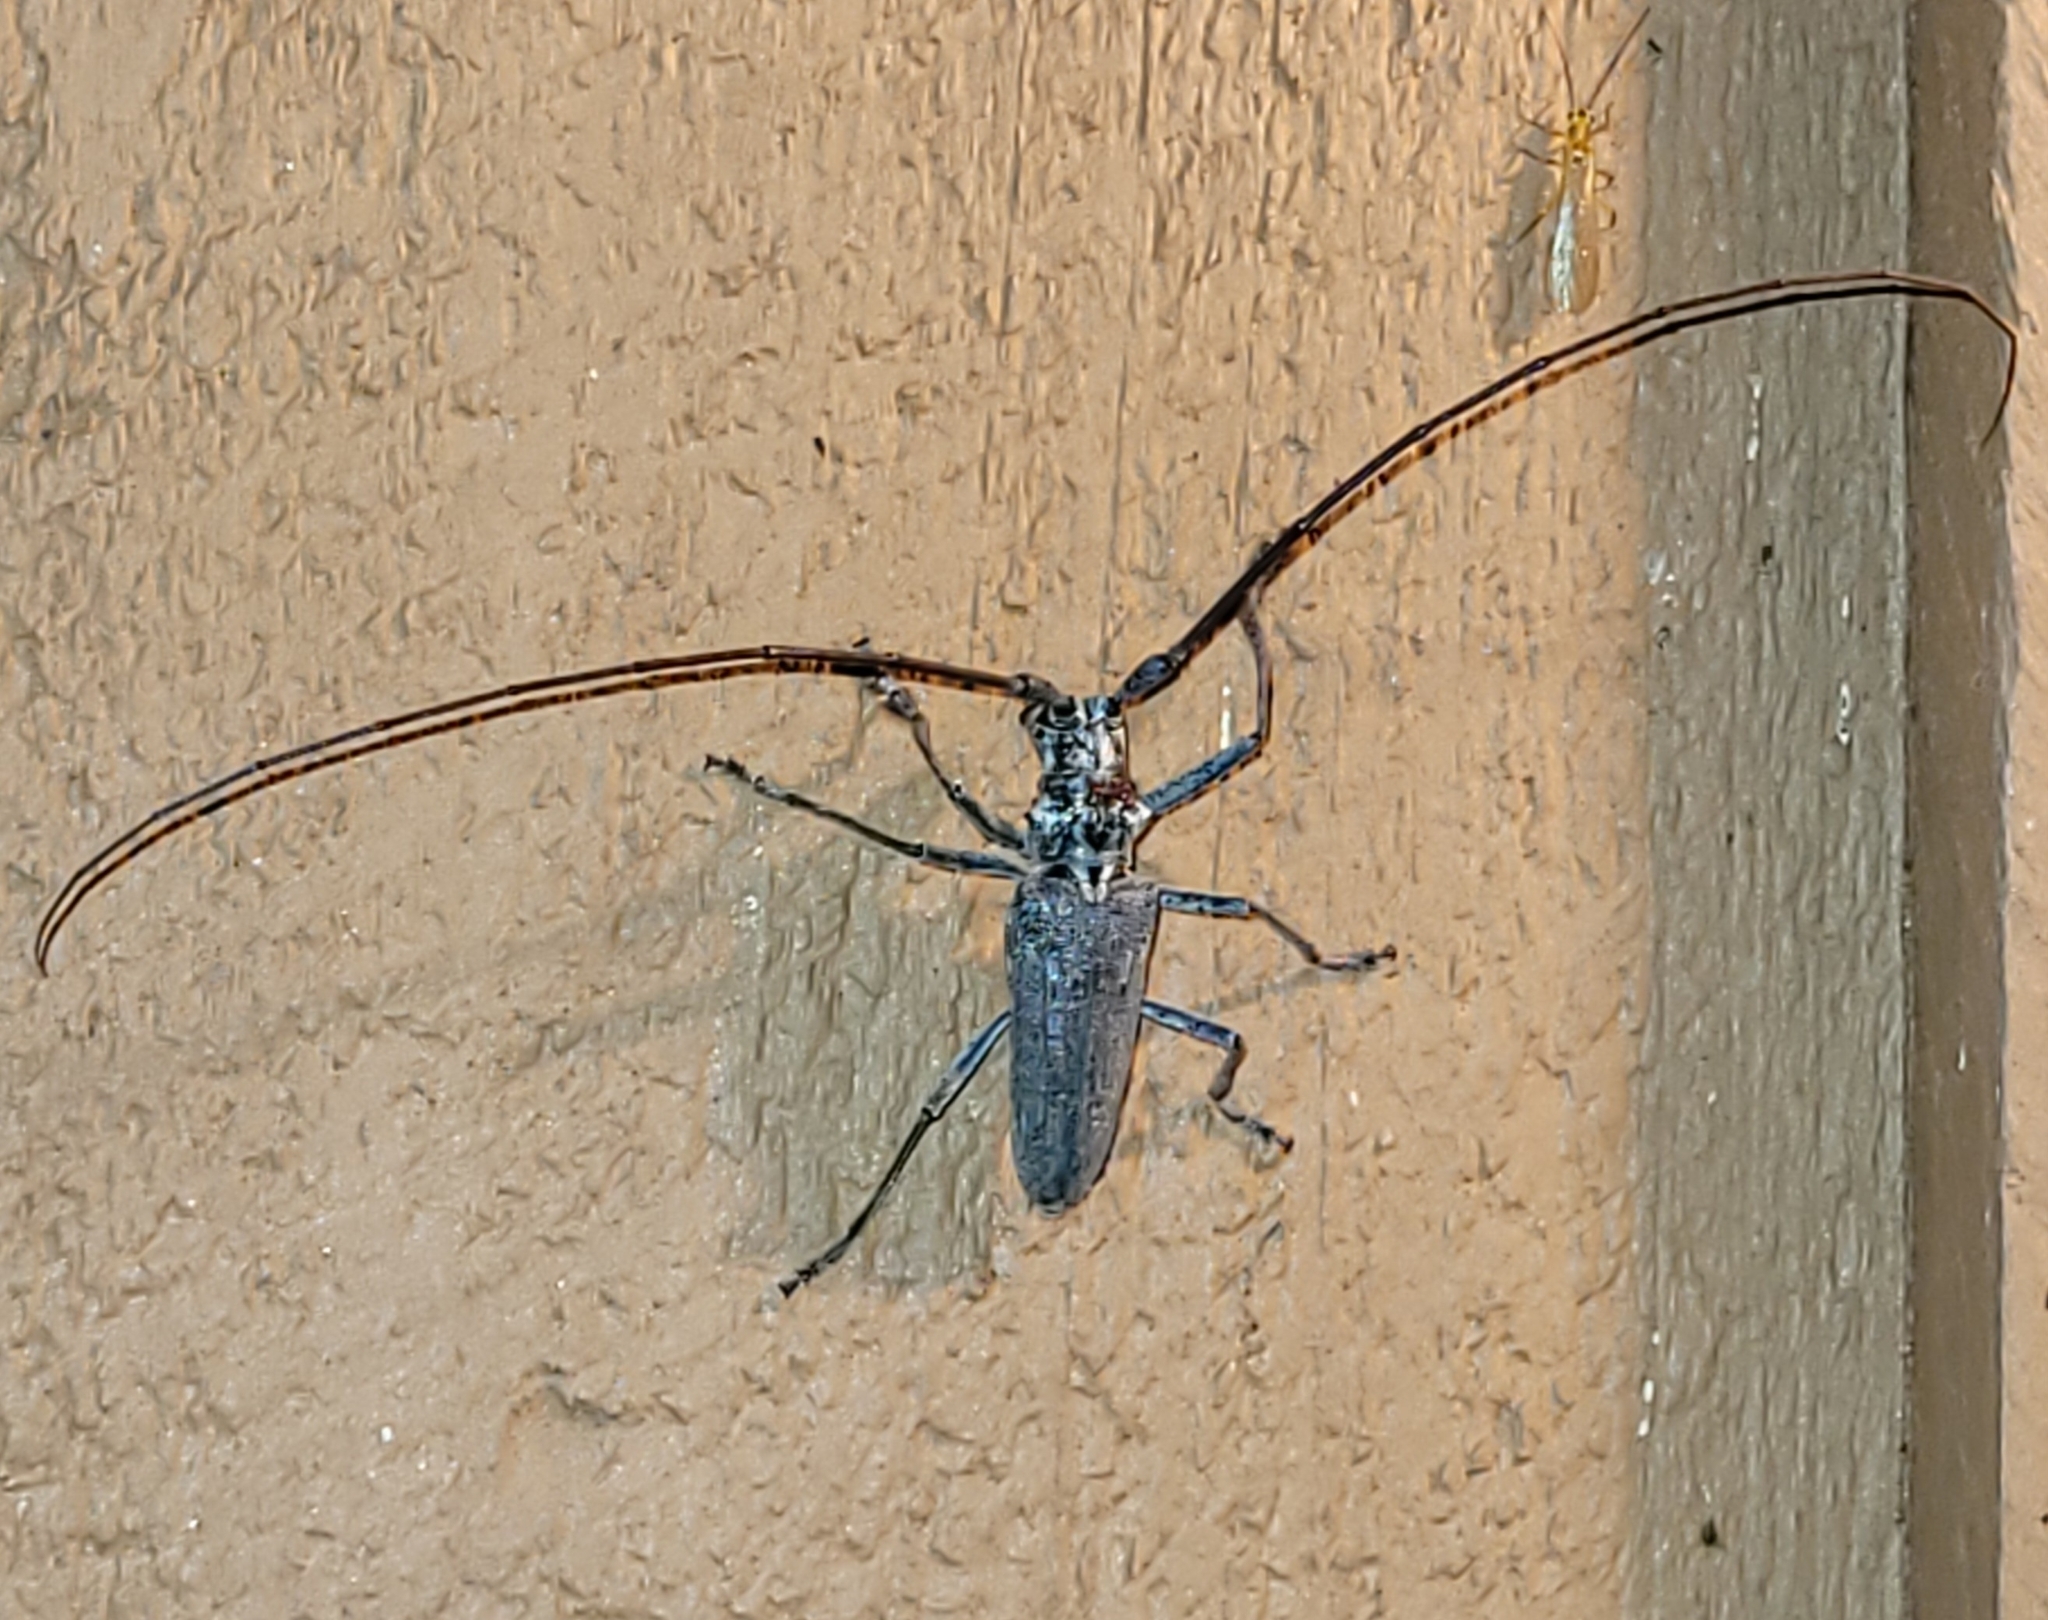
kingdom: Animalia
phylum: Arthropoda
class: Insecta
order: Coleoptera
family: Cerambycidae
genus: Monochamus
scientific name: Monochamus notatus
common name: Northeastern pine sawyer beetle
